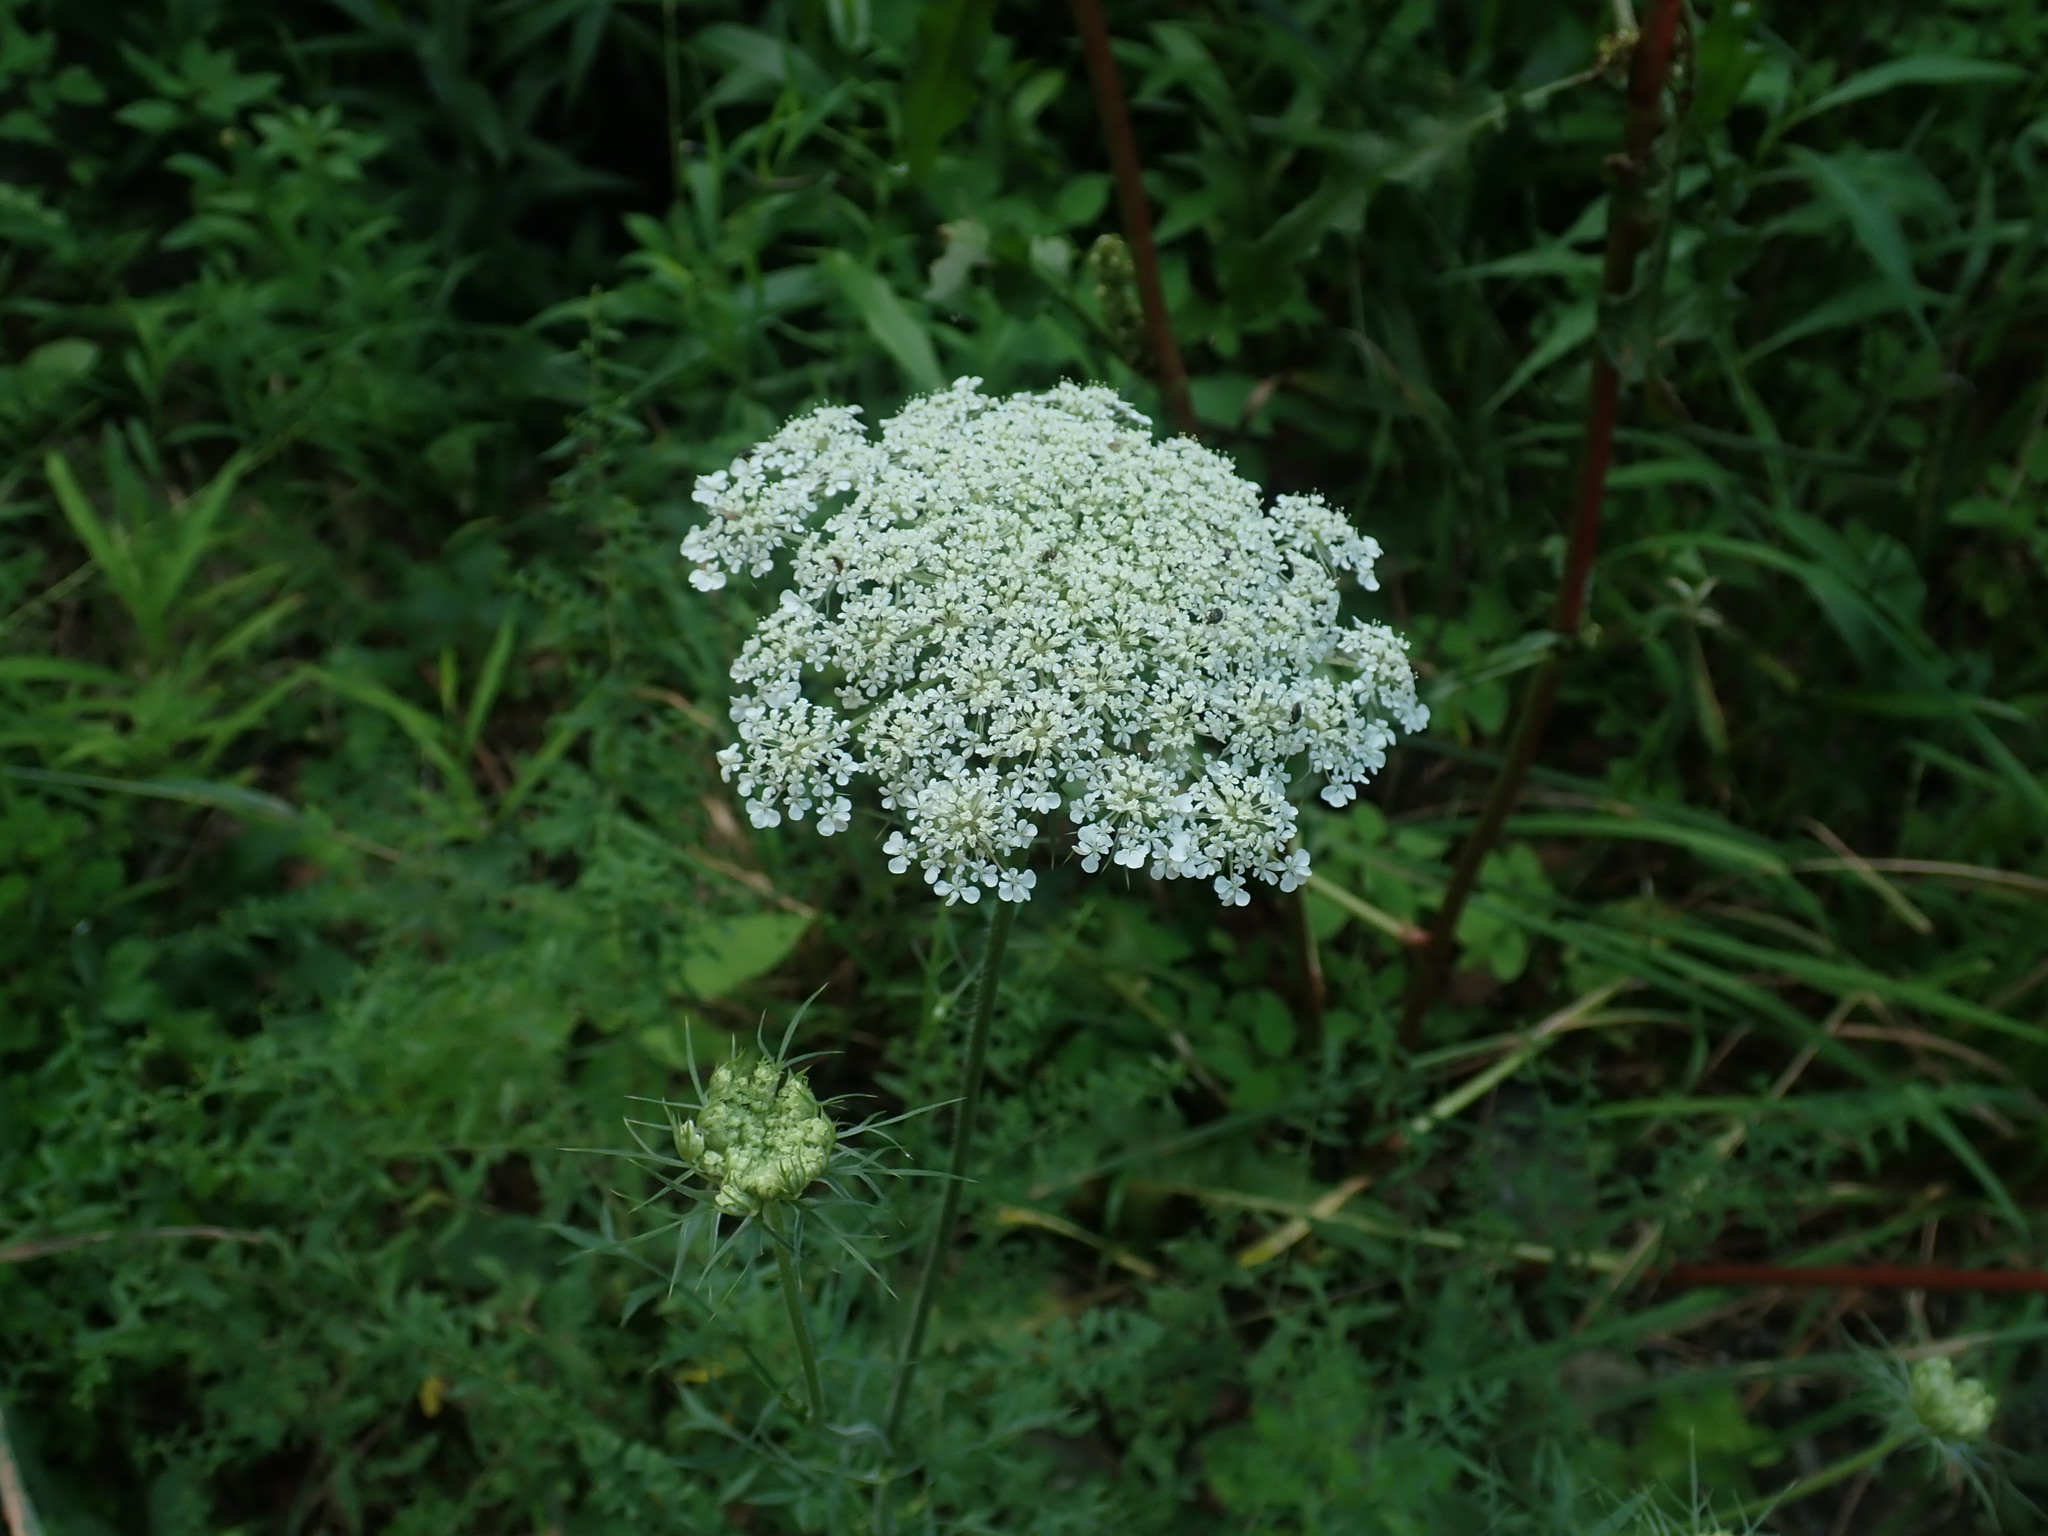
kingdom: Plantae
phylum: Tracheophyta
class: Magnoliopsida
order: Apiales
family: Apiaceae
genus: Daucus
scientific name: Daucus carota
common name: Wild carrot
